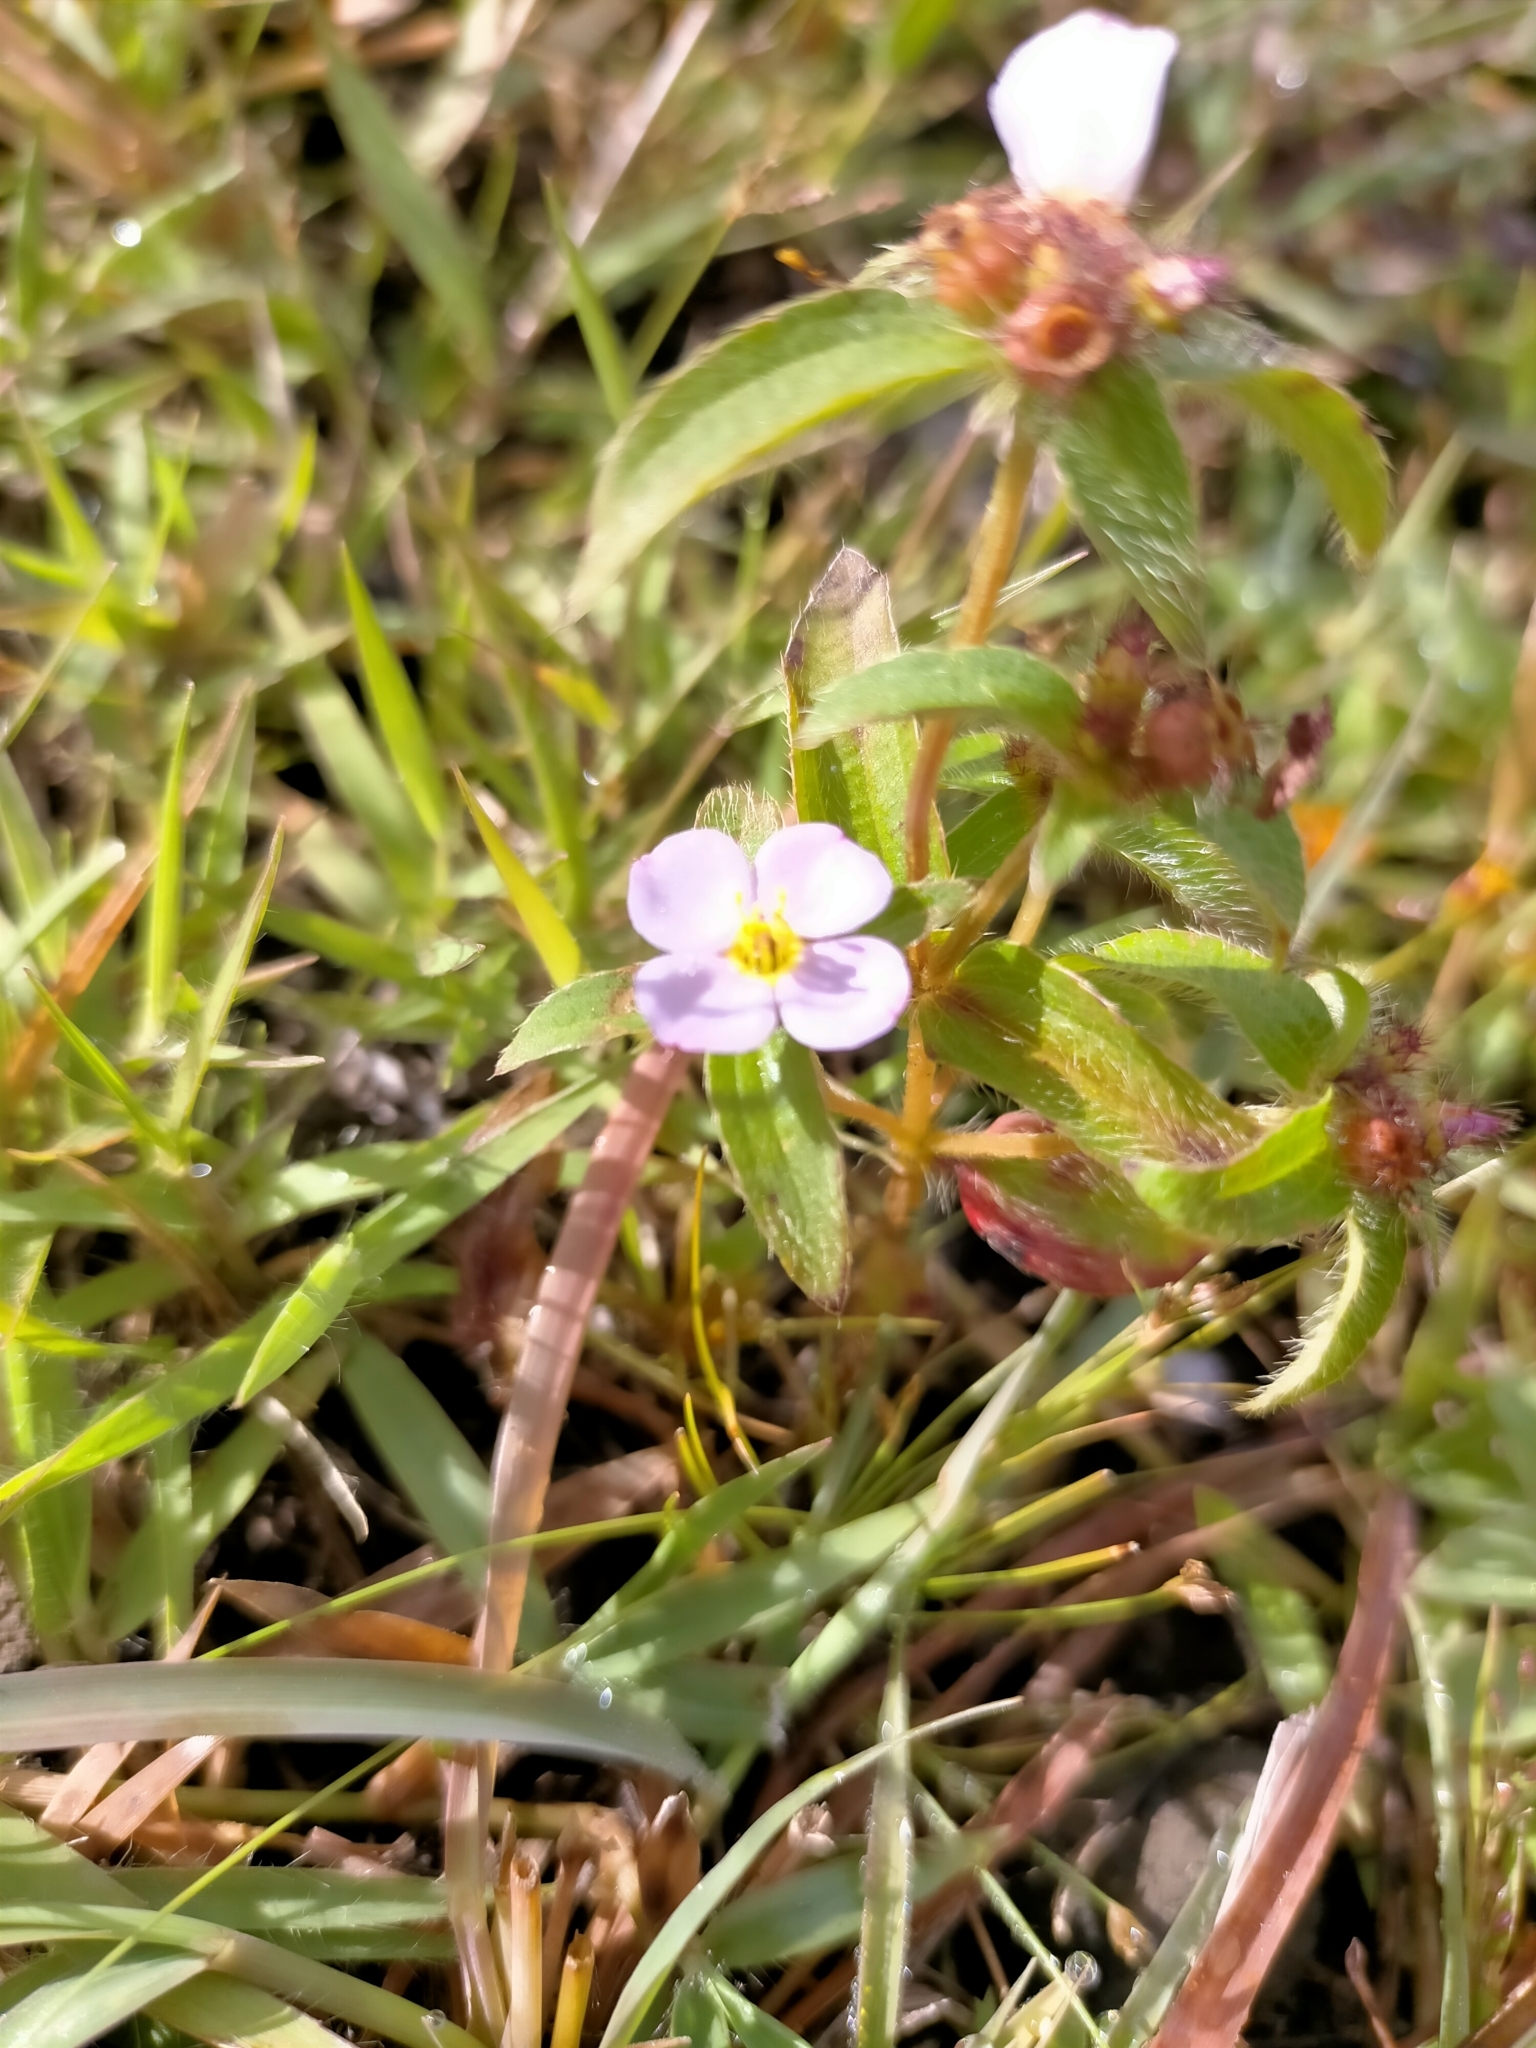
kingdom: Plantae
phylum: Tracheophyta
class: Magnoliopsida
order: Myrtales
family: Melastomataceae
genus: Antherotoma
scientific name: Antherotoma naudinii
